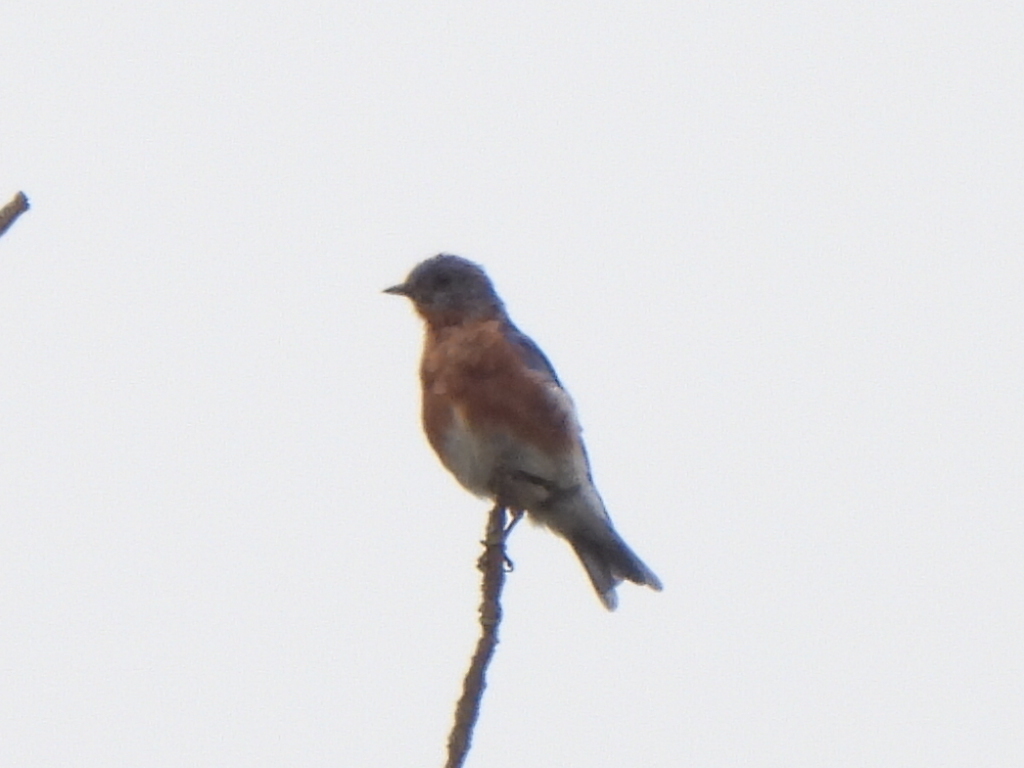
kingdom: Animalia
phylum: Chordata
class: Aves
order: Passeriformes
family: Turdidae
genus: Sialia
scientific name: Sialia sialis
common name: Eastern bluebird
